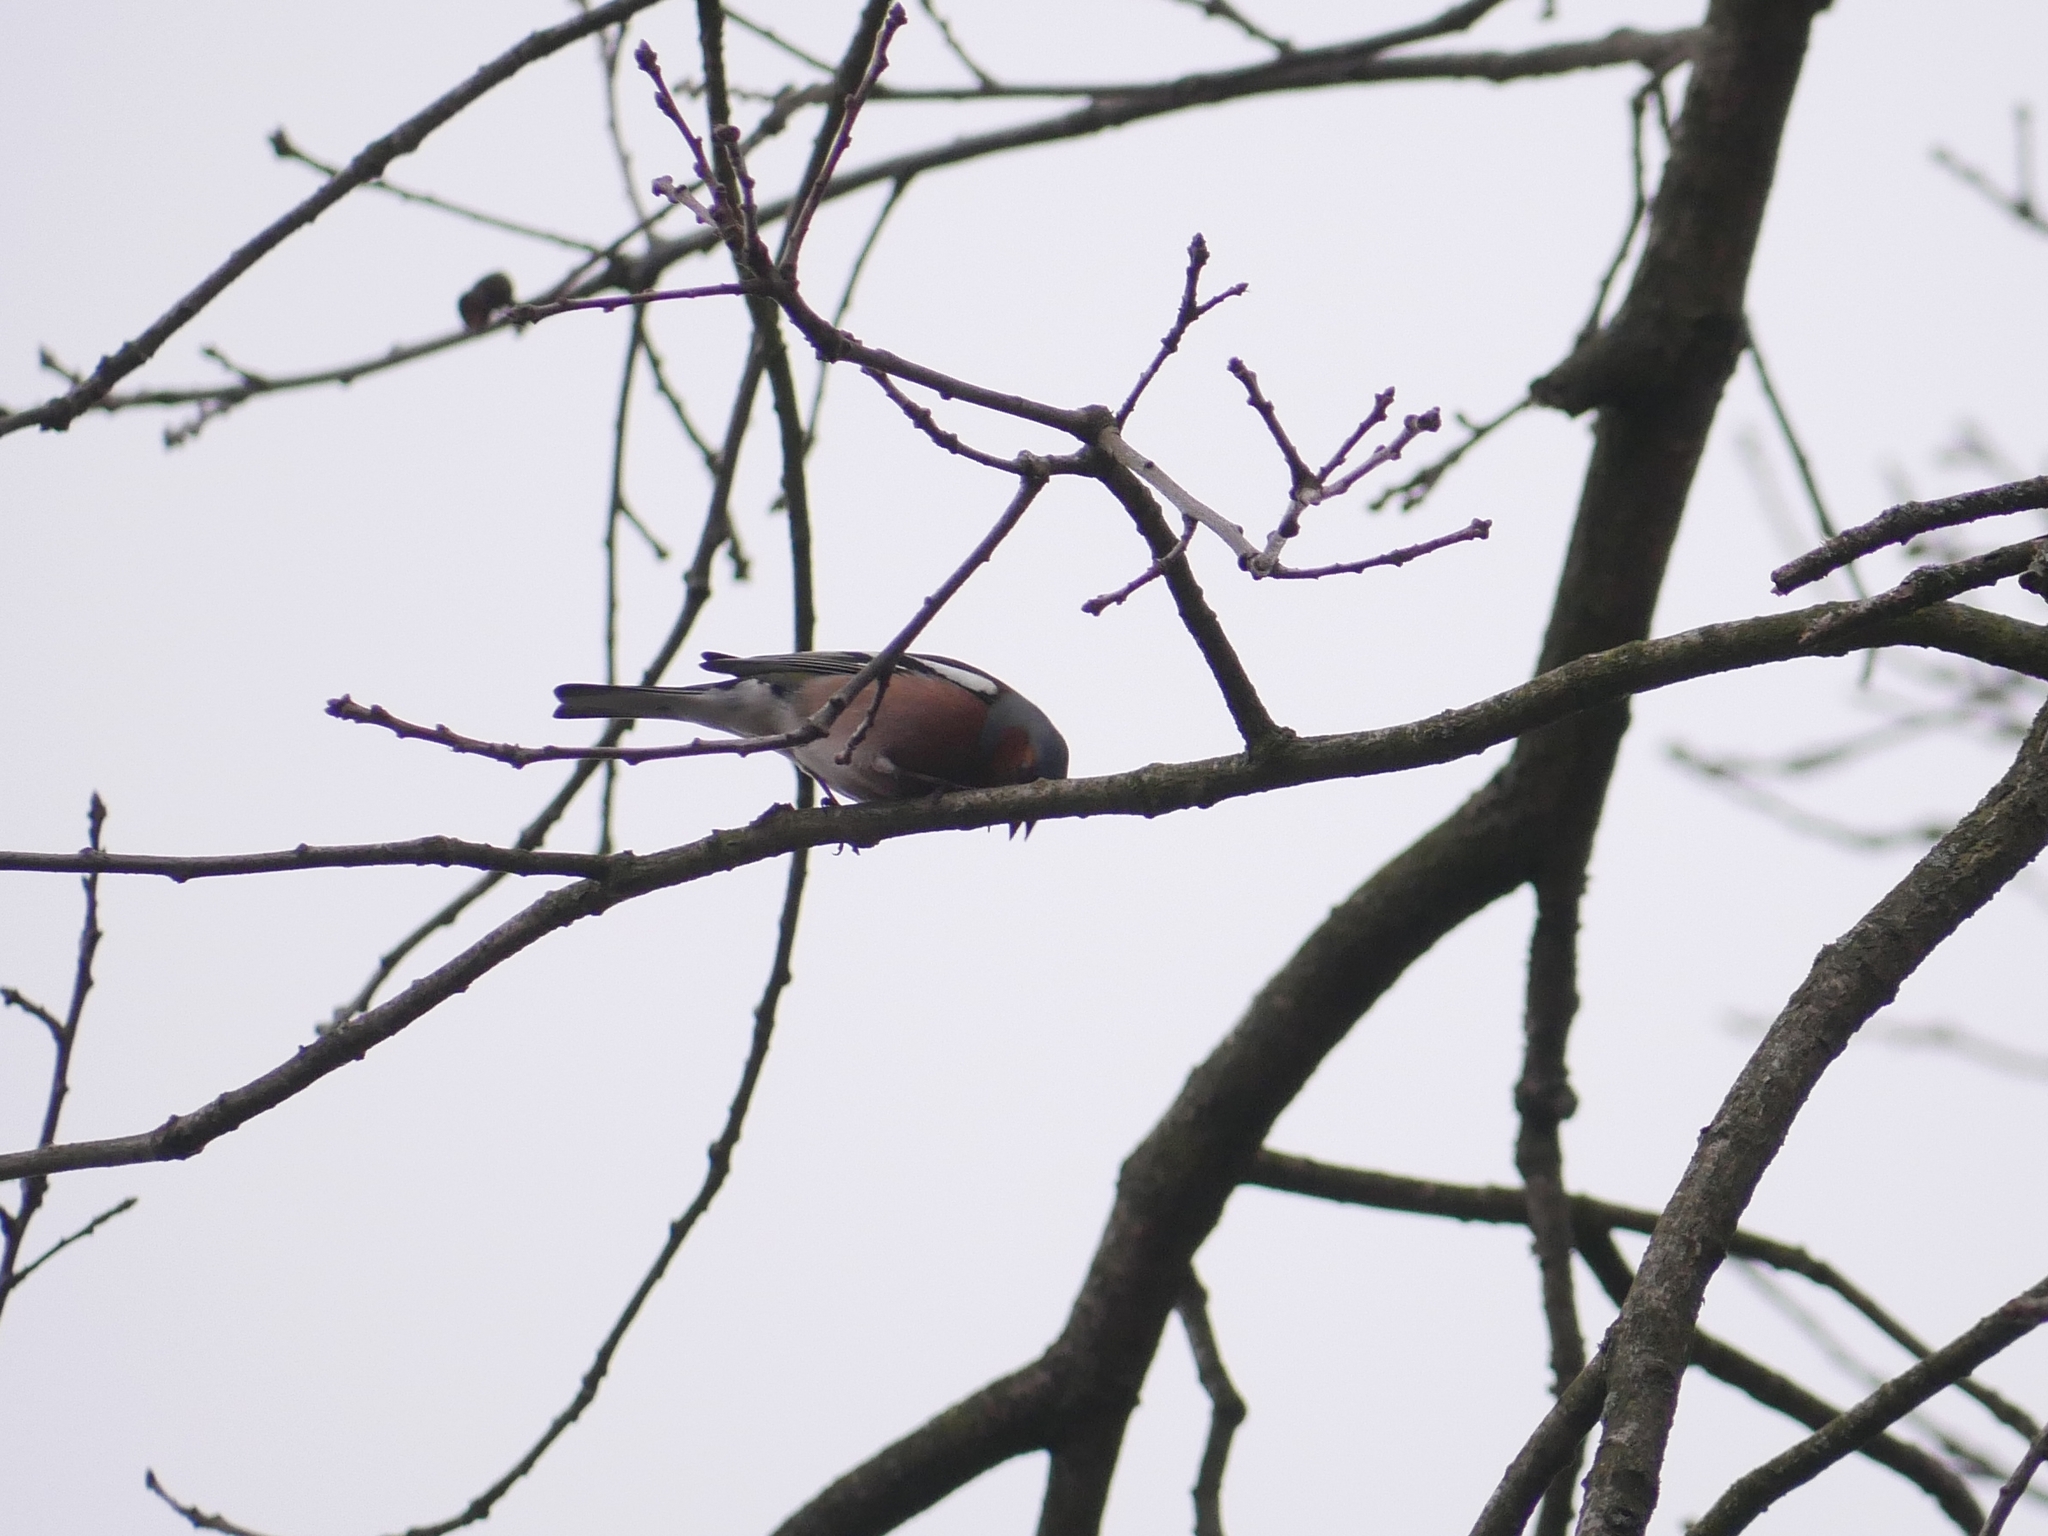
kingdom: Animalia
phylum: Chordata
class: Aves
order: Passeriformes
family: Fringillidae
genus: Fringilla
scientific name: Fringilla coelebs
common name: Common chaffinch
